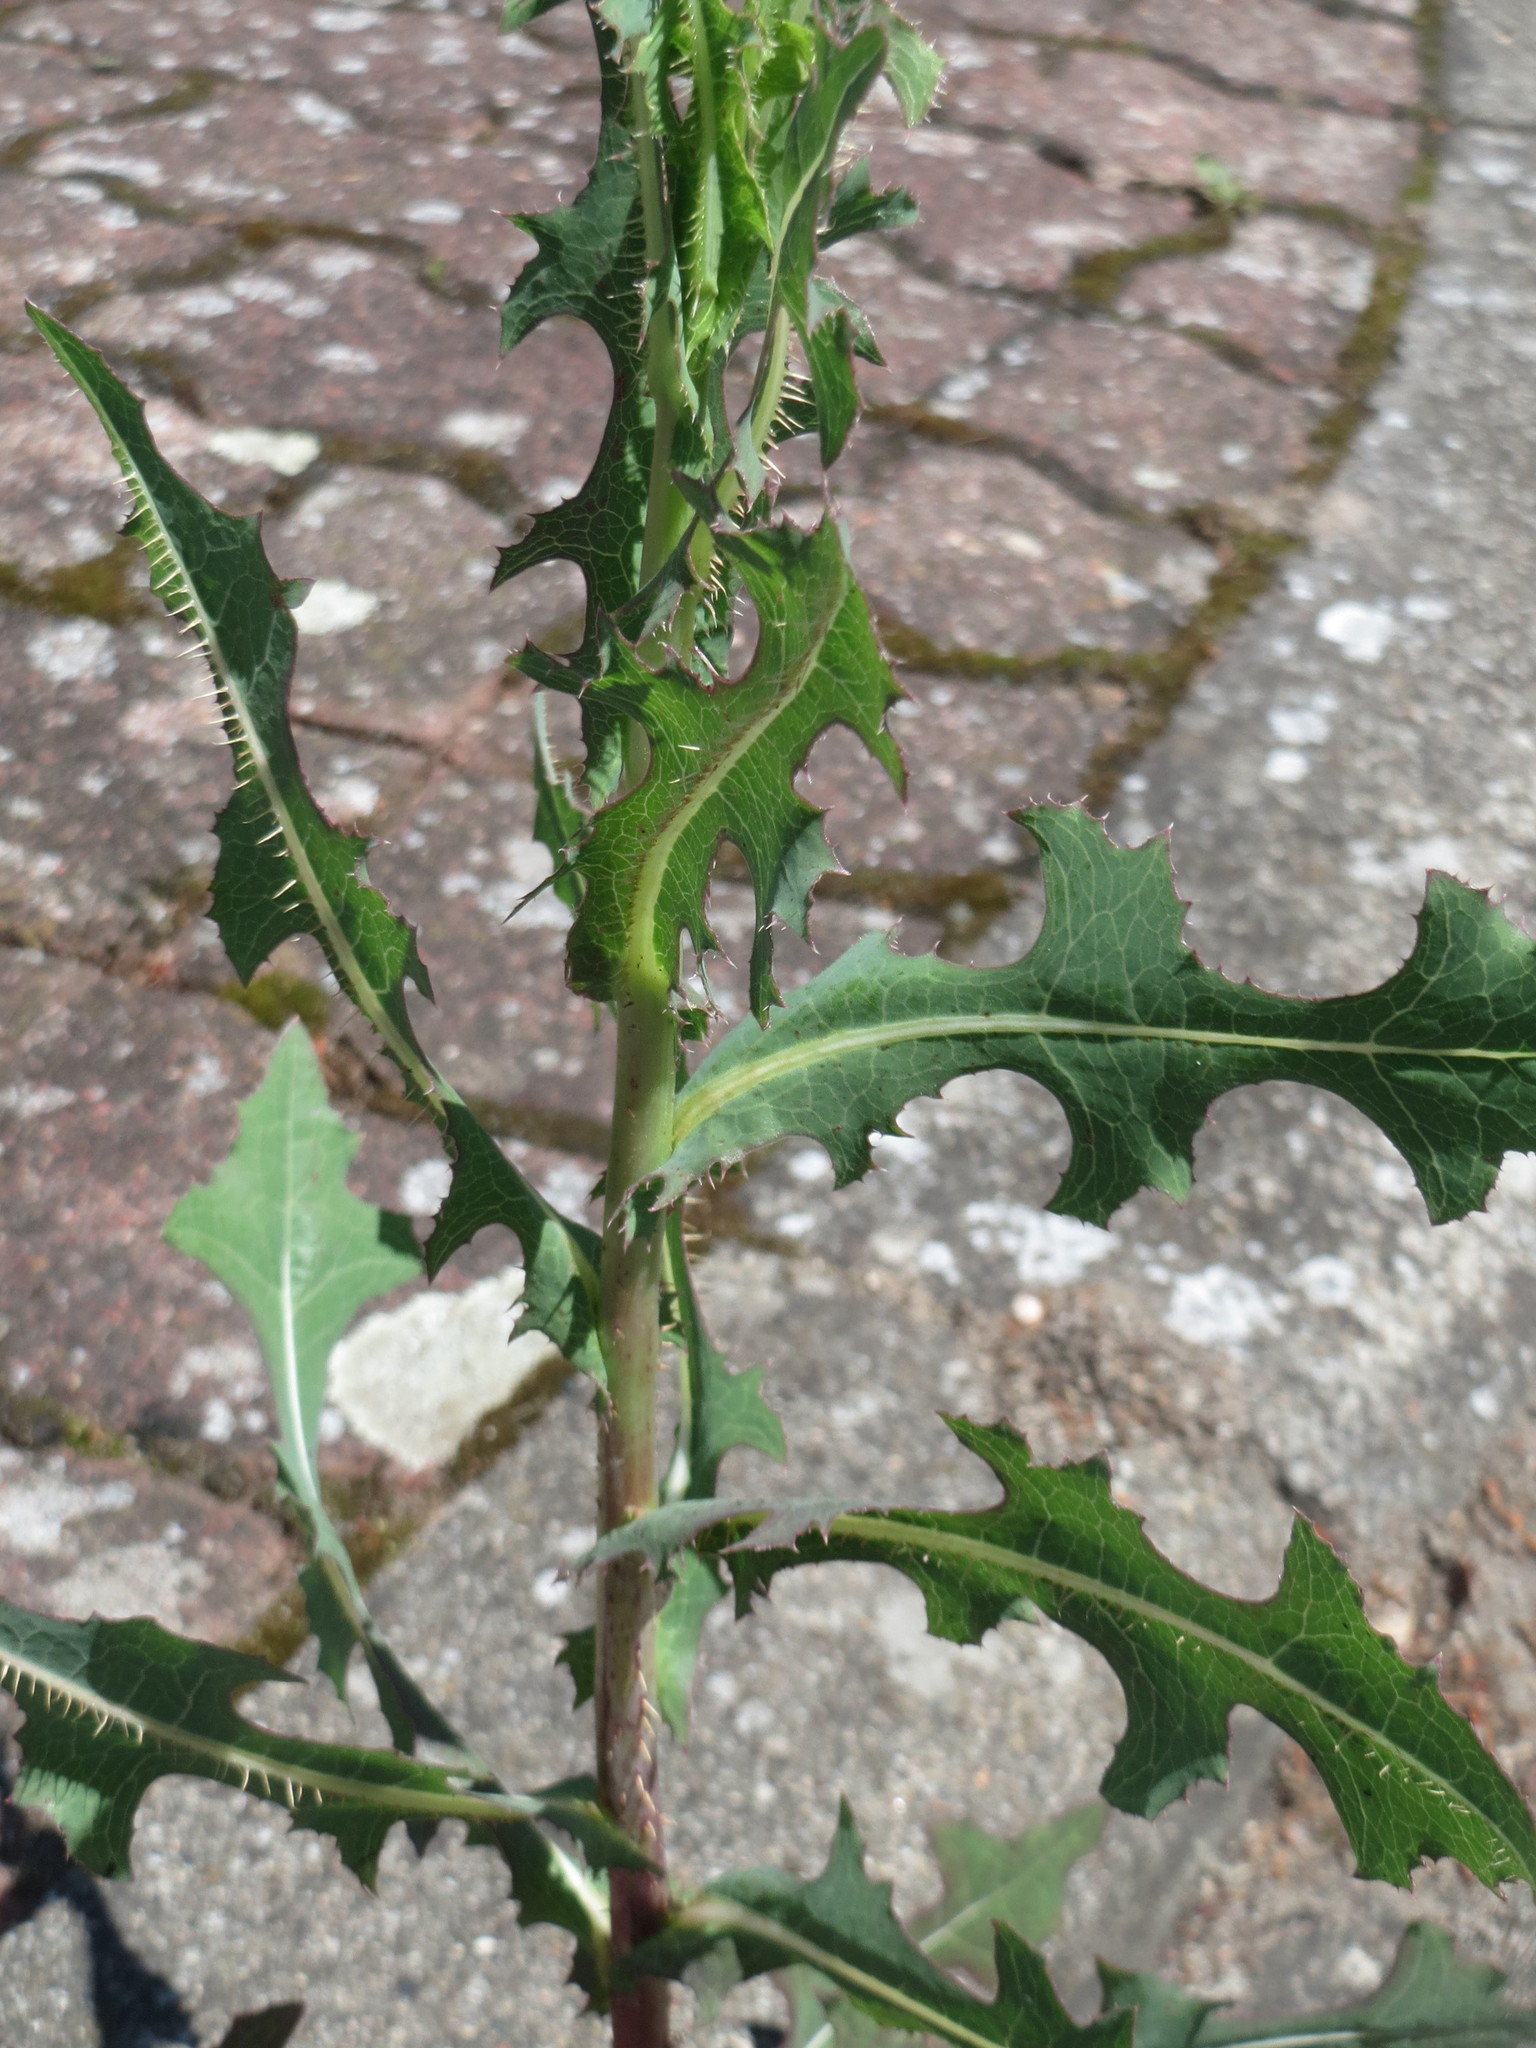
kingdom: Plantae
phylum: Tracheophyta
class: Magnoliopsida
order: Asterales
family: Asteraceae
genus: Lactuca
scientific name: Lactuca serriola
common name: Prickly lettuce
